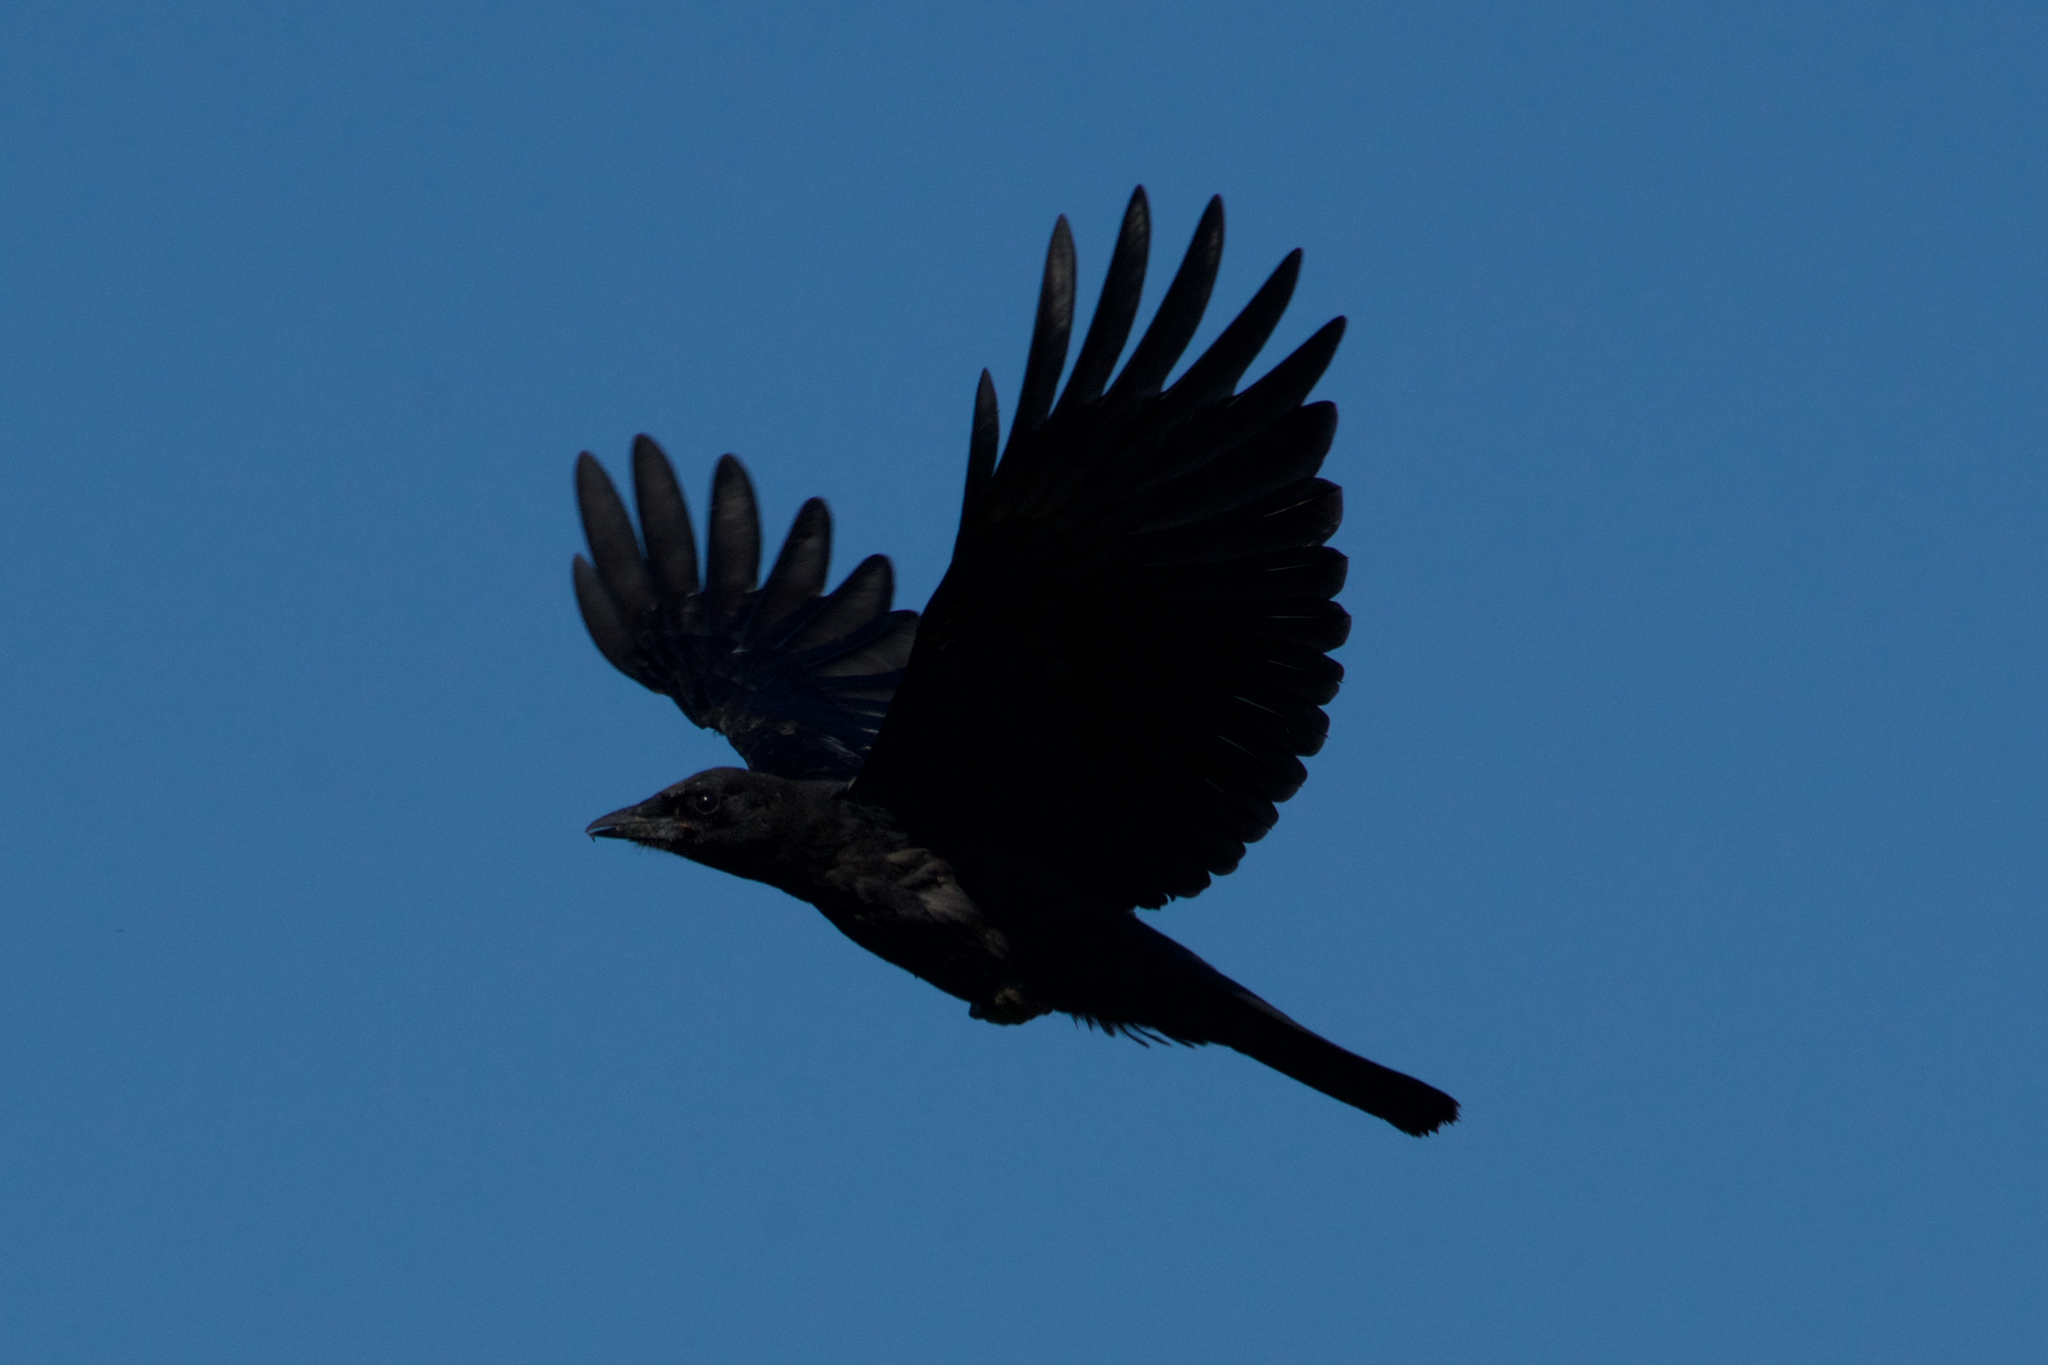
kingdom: Animalia
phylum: Chordata
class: Aves
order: Passeriformes
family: Corvidae
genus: Corvus
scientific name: Corvus brachyrhynchos
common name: American crow
